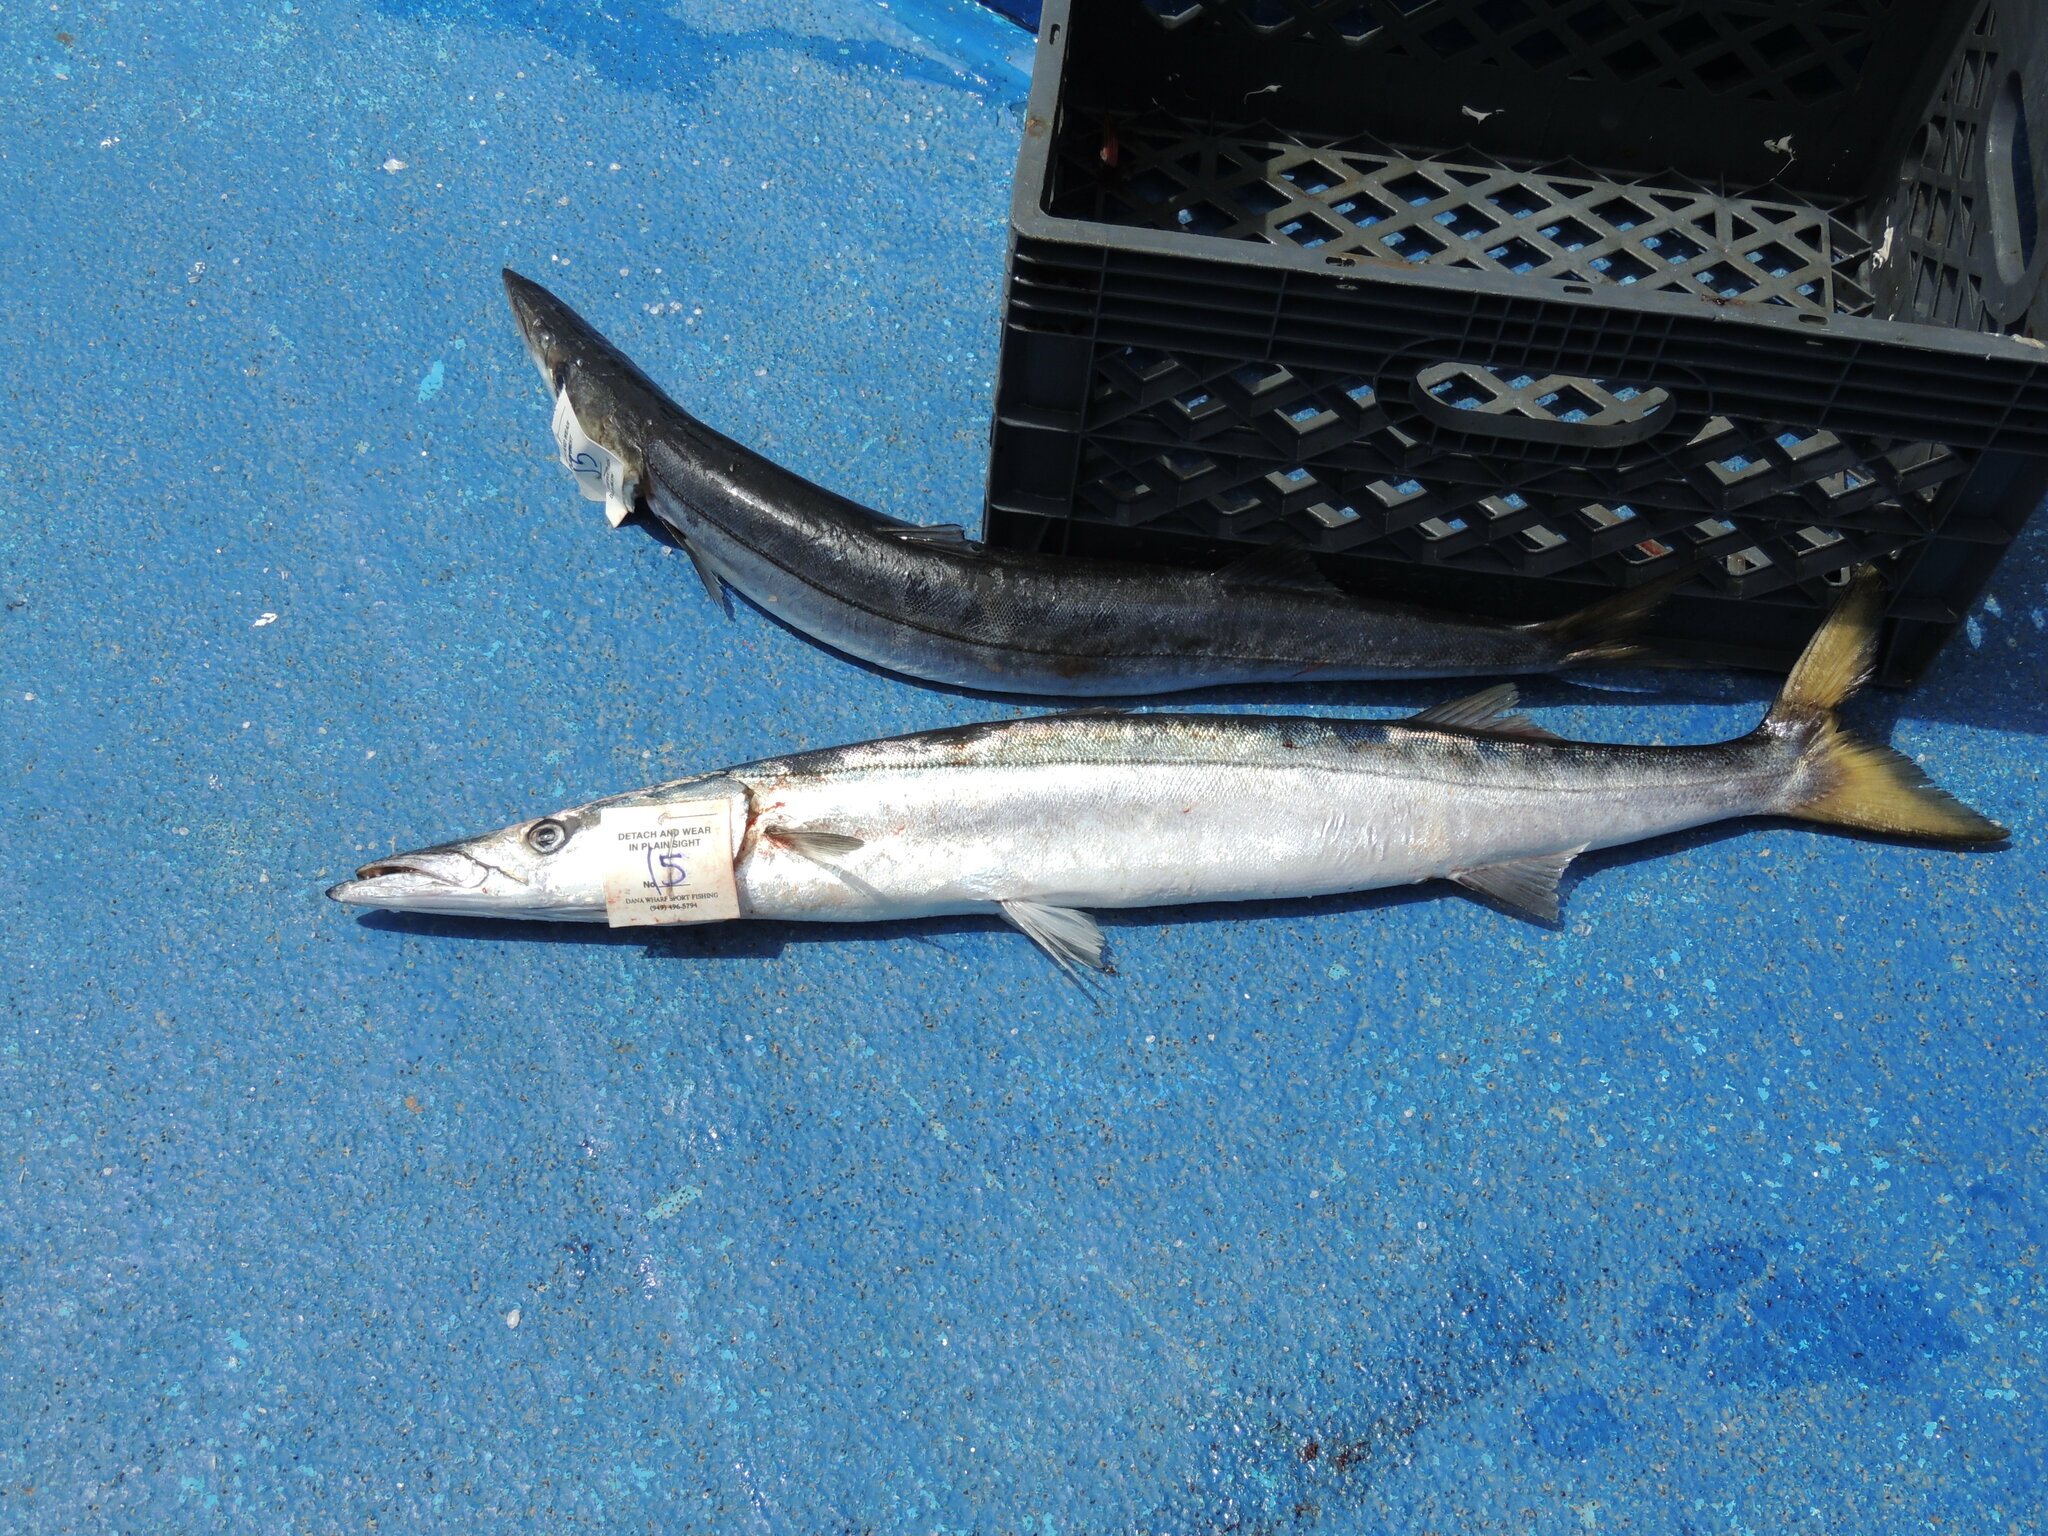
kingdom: Animalia
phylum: Chordata
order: Perciformes
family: Sphyraenidae
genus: Sphyraena
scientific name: Sphyraena argentea
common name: Pacific barracuda
